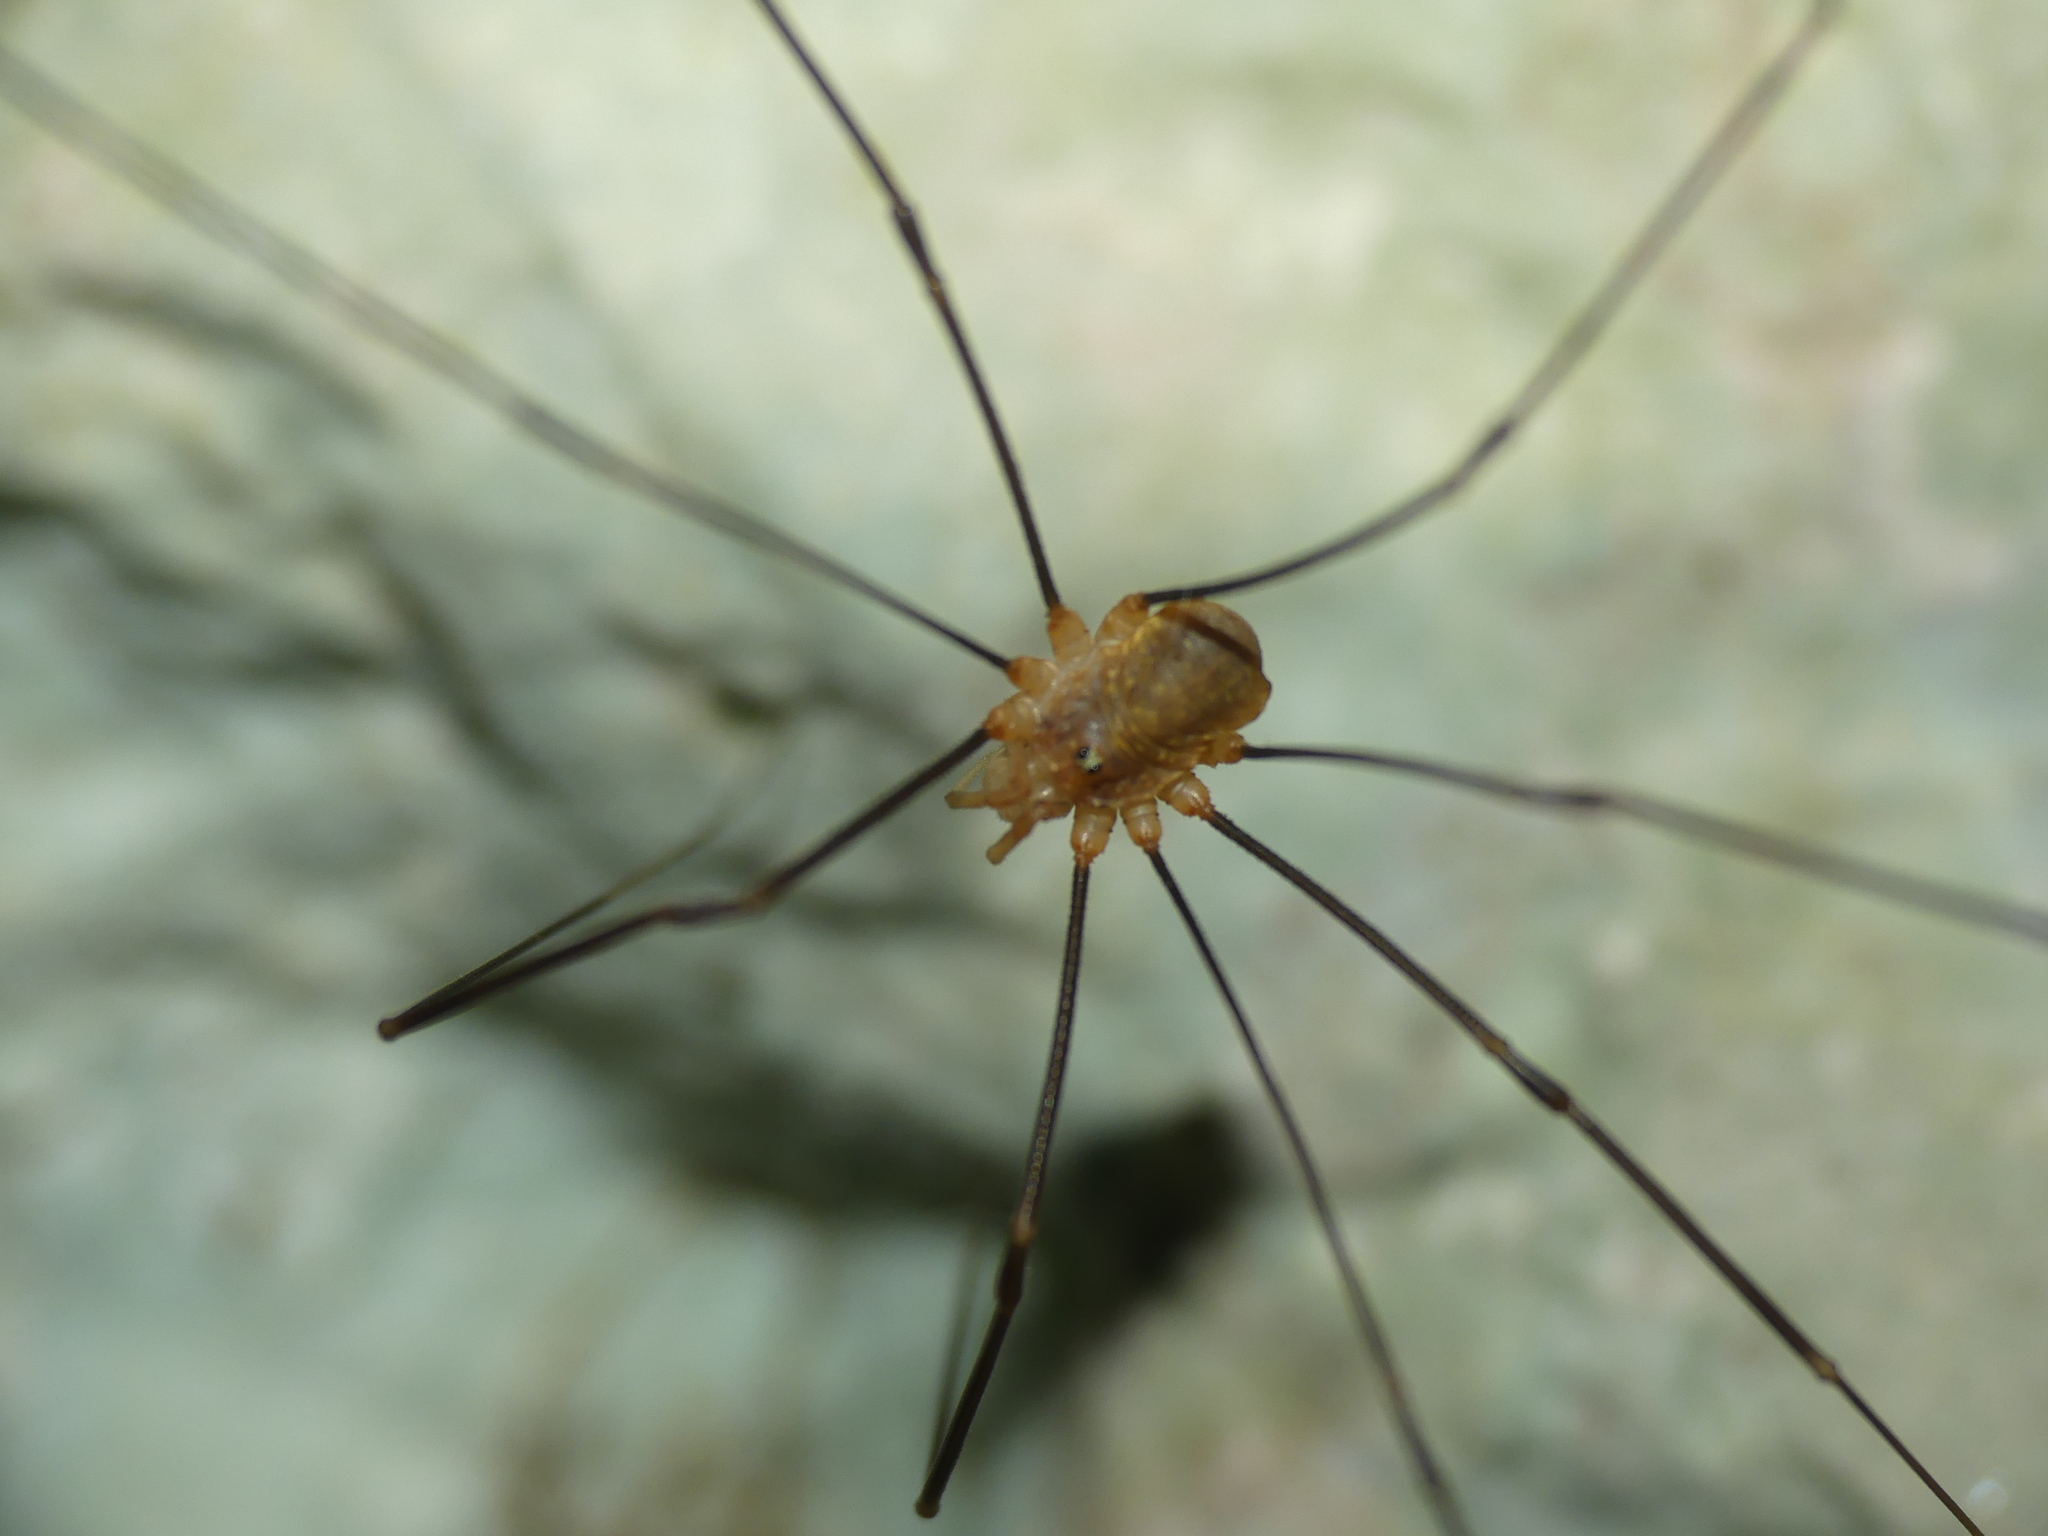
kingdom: Animalia
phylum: Arthropoda
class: Arachnida
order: Opiliones
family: Phalangiidae
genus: Opilio
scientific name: Opilio canestrinii
